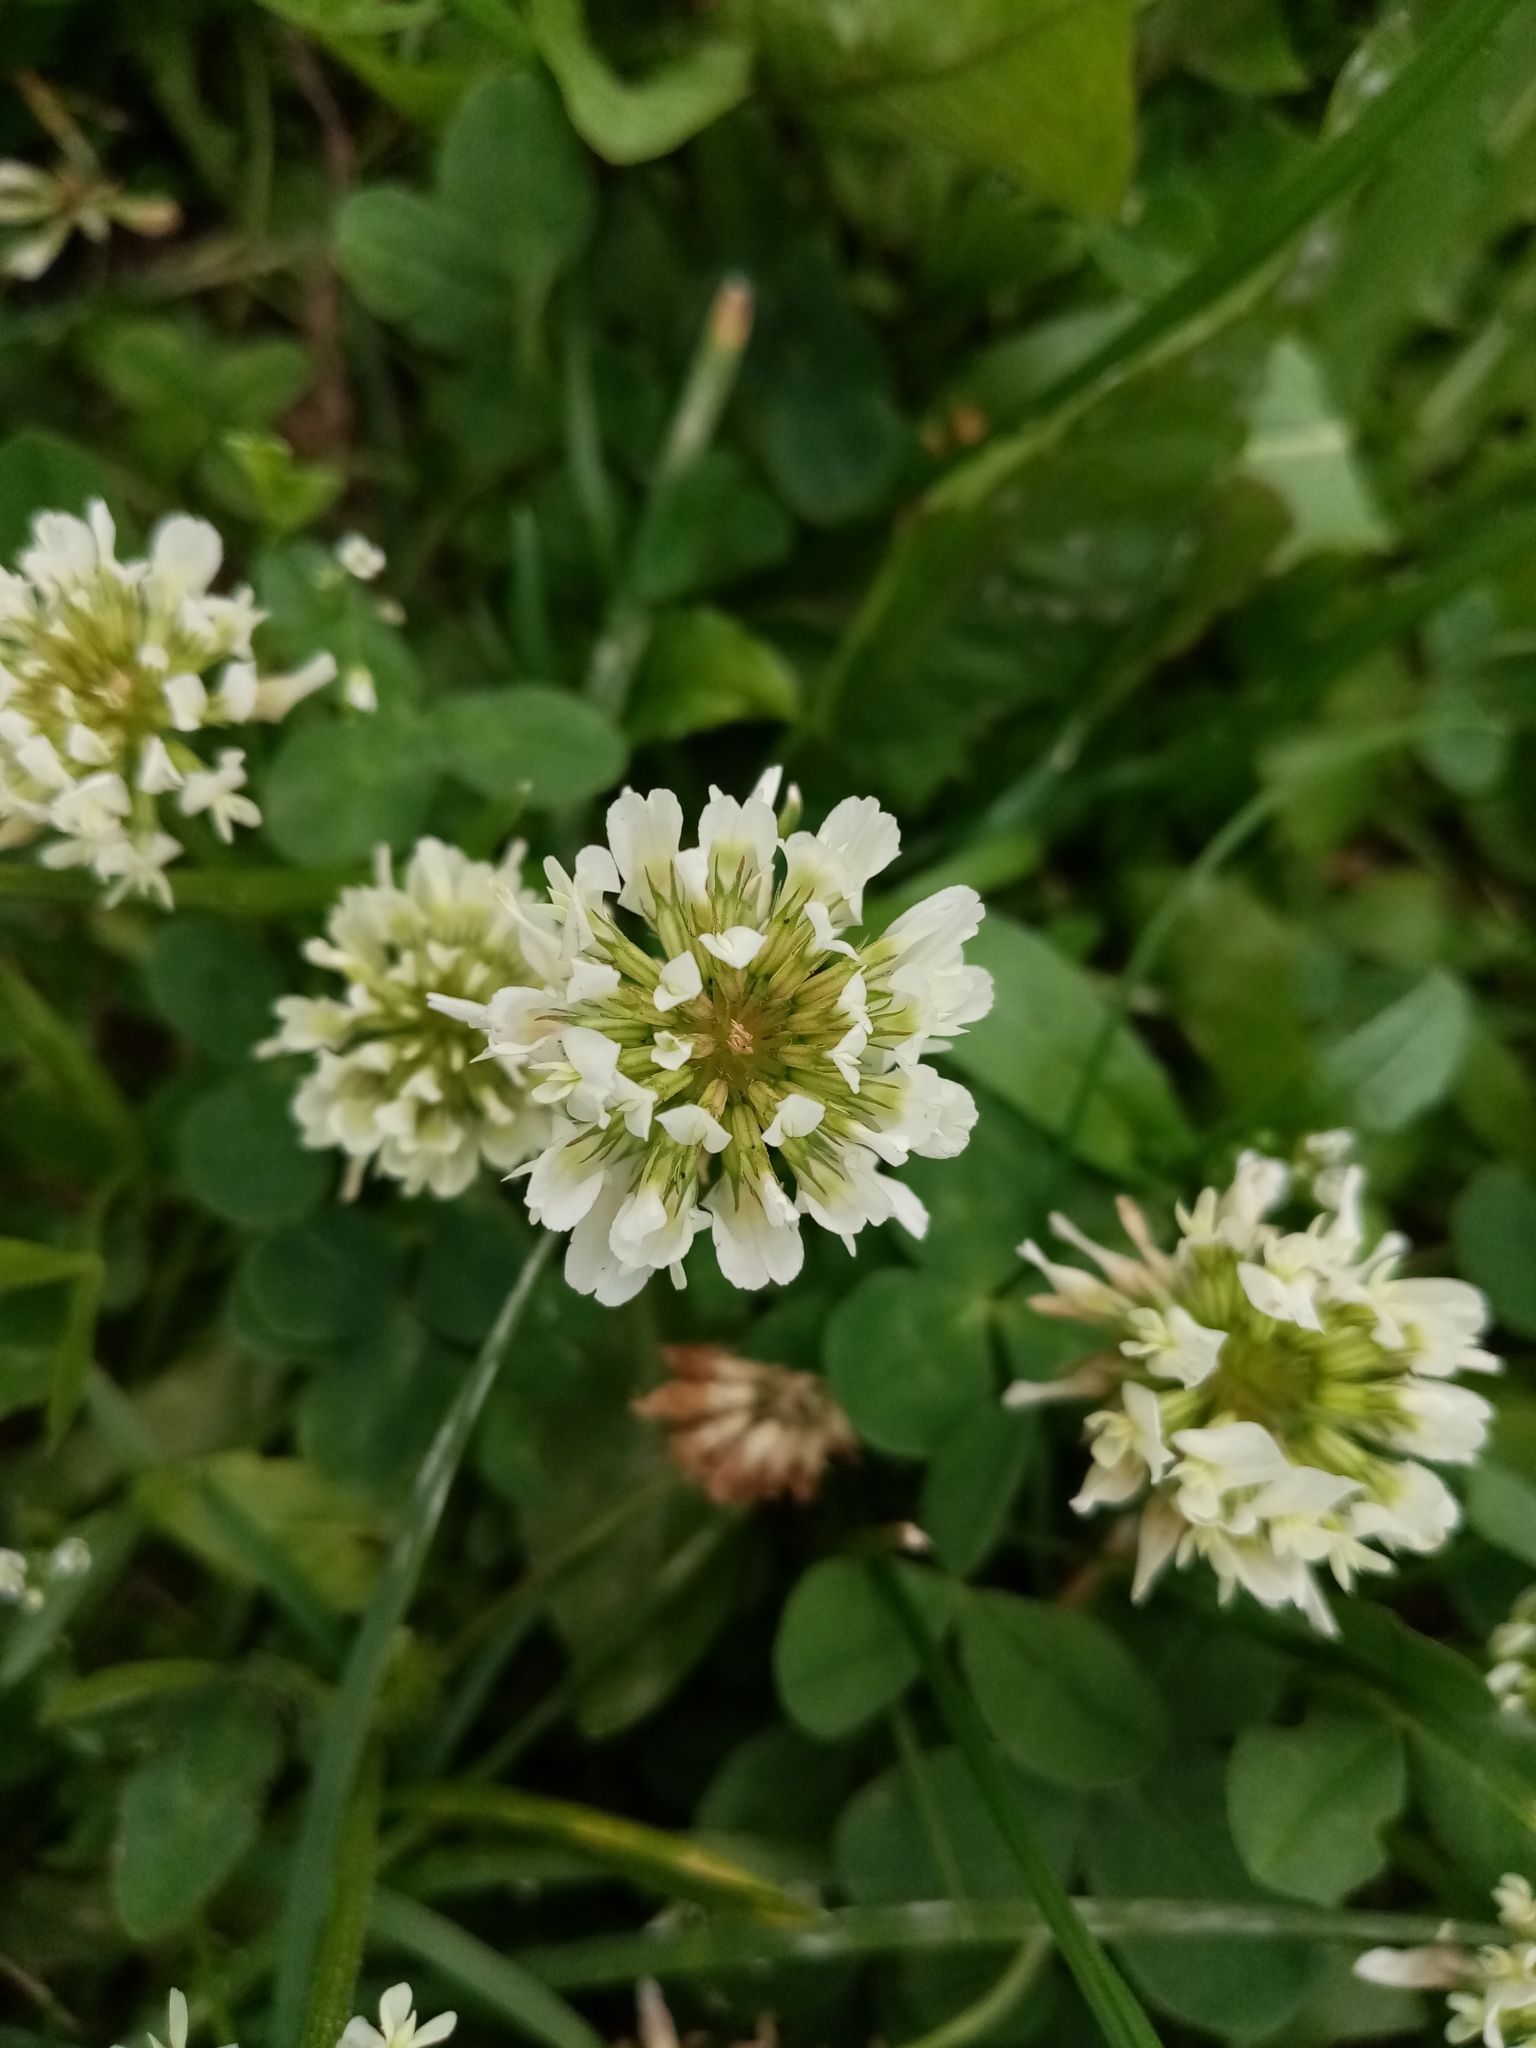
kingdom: Plantae
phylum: Tracheophyta
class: Magnoliopsida
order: Fabales
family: Fabaceae
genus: Trifolium
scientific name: Trifolium repens
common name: White clover
